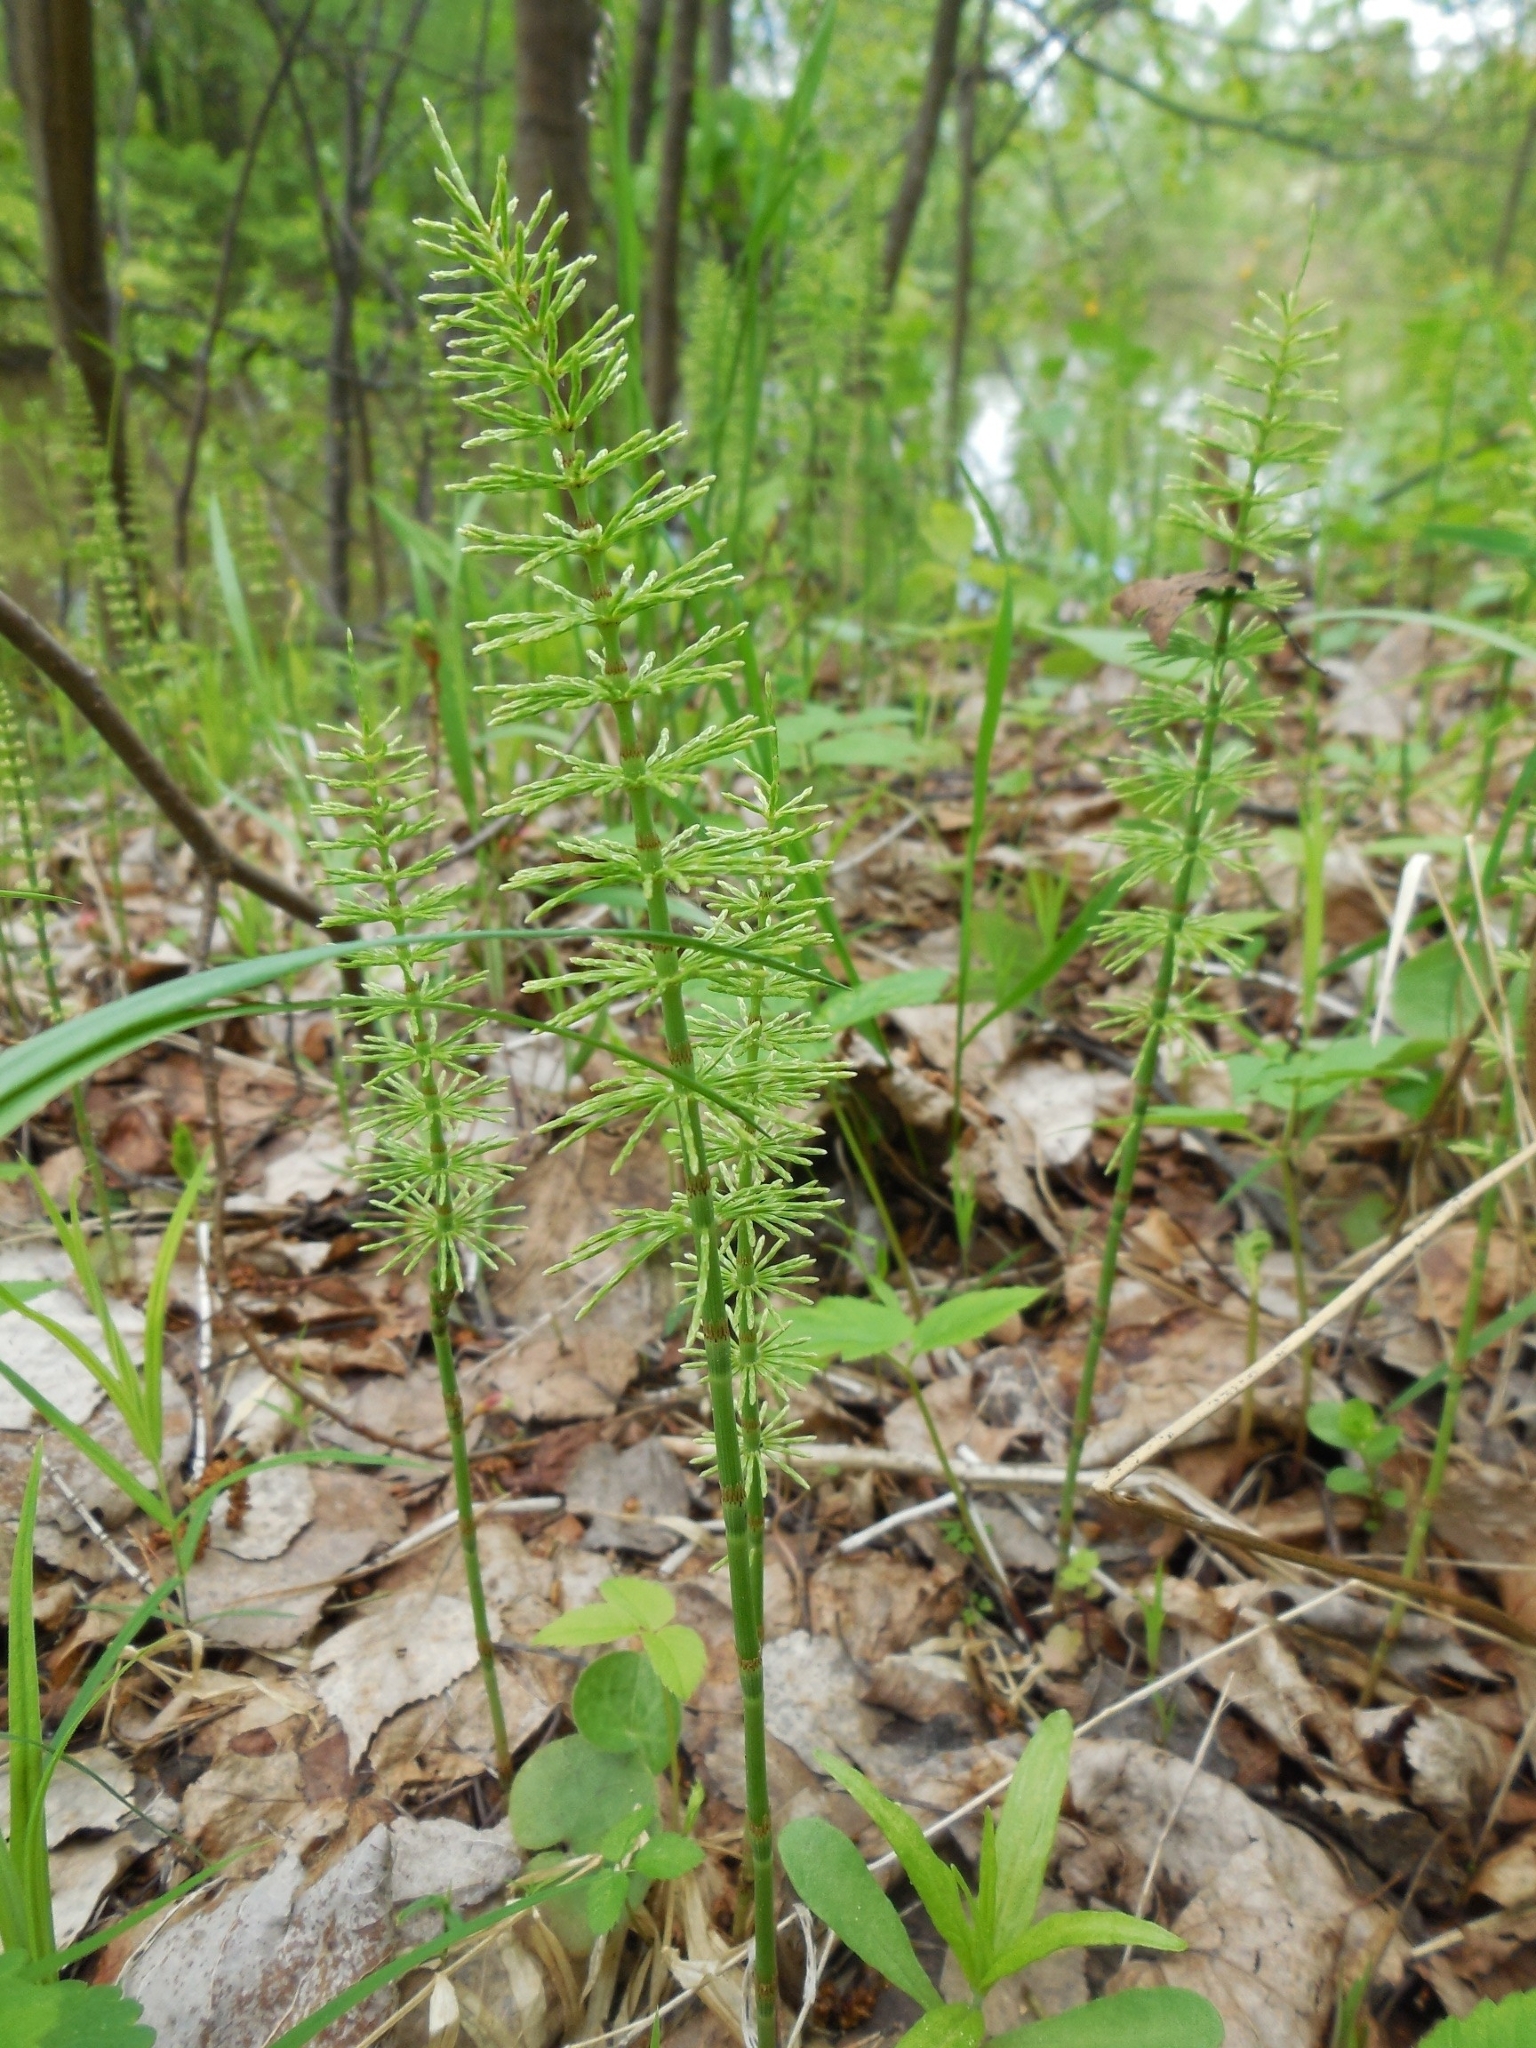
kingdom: Plantae
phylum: Tracheophyta
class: Polypodiopsida
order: Equisetales
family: Equisetaceae
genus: Equisetum
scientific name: Equisetum pratense
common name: Meadow horsetail
